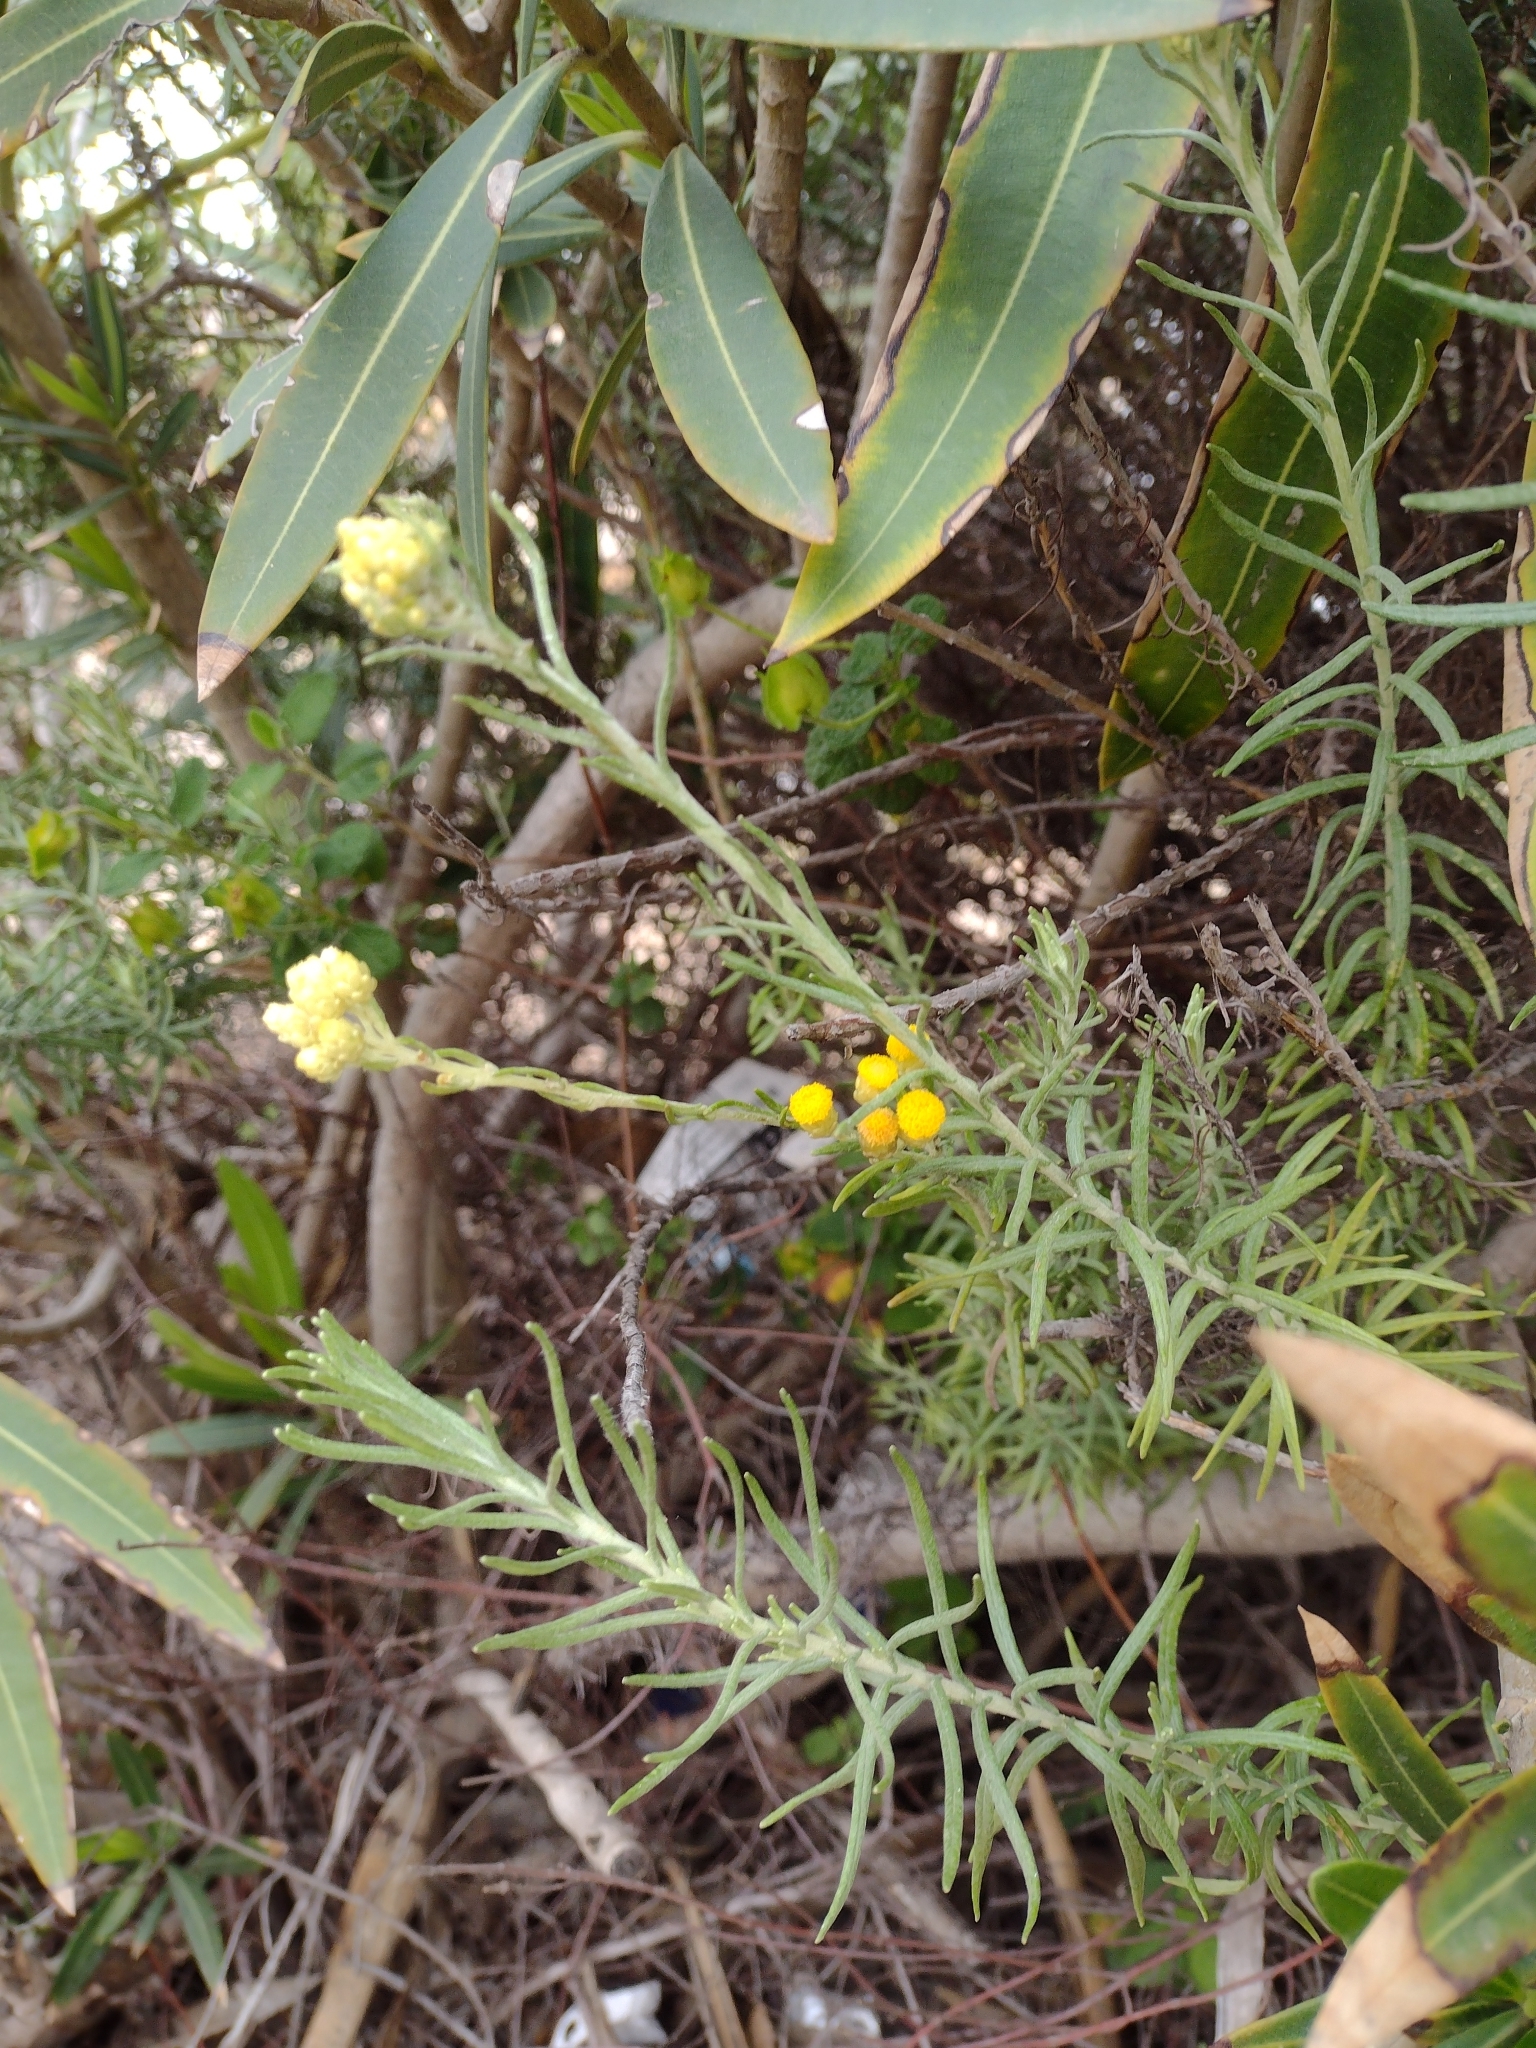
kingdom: Plantae
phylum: Tracheophyta
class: Magnoliopsida
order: Asterales
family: Asteraceae
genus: Helichrysum
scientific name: Helichrysum stoechas
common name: Goldilocks
